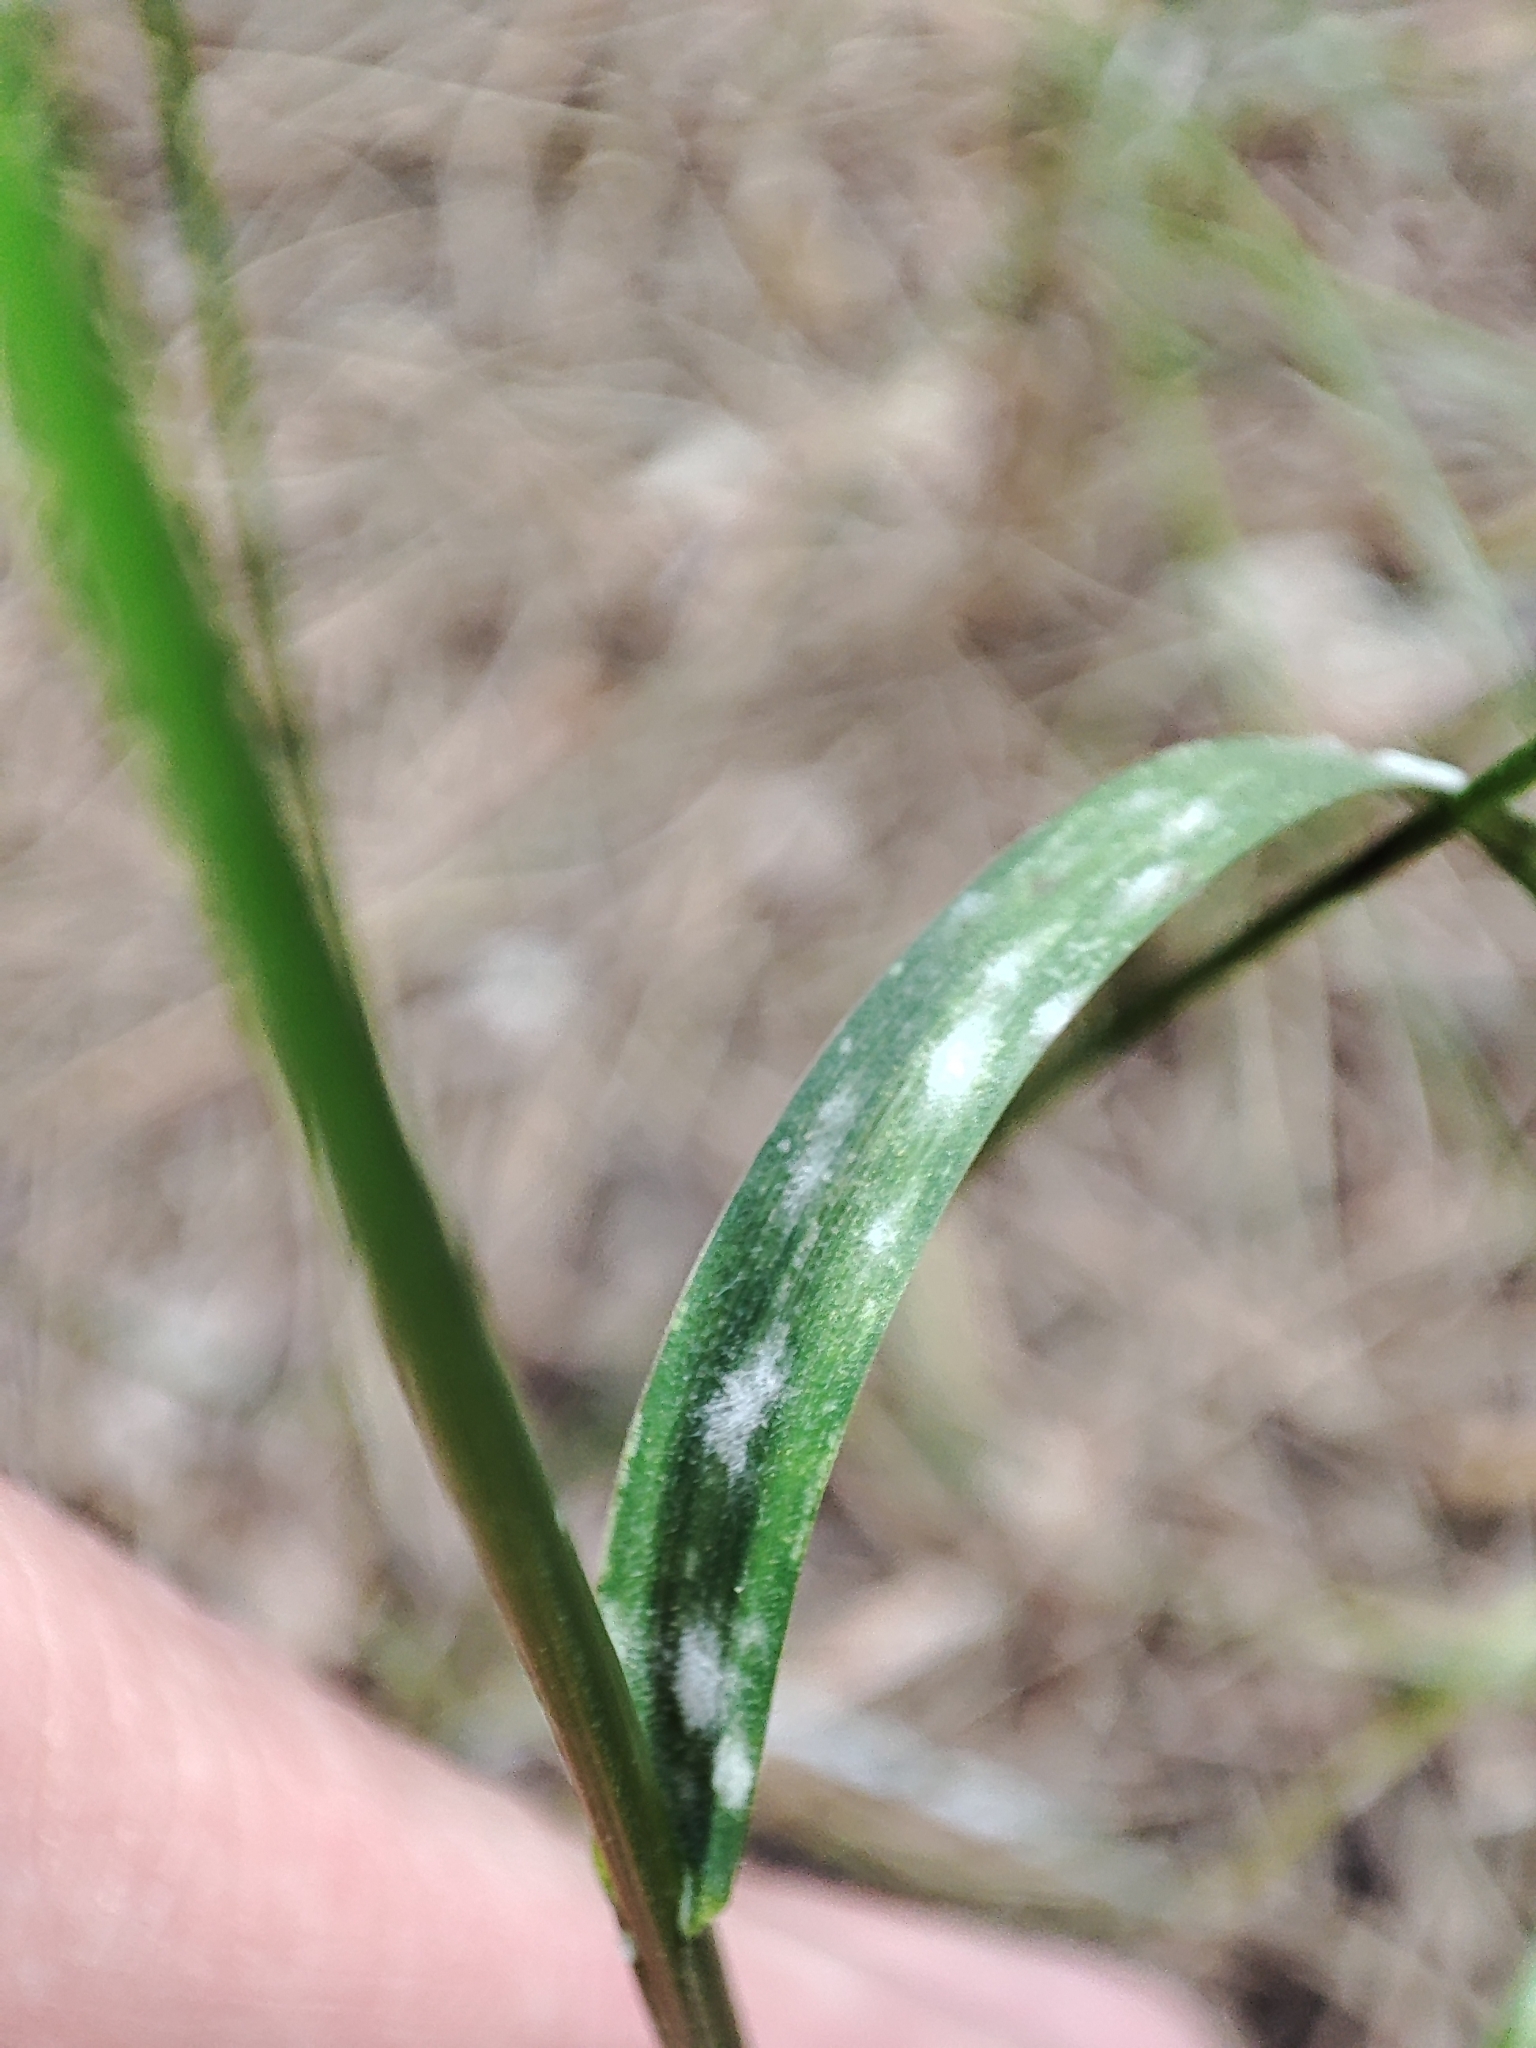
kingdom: Fungi
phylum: Ascomycota
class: Leotiomycetes
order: Helotiales
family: Erysiphaceae
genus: Blumeria
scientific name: Blumeria graminicola
